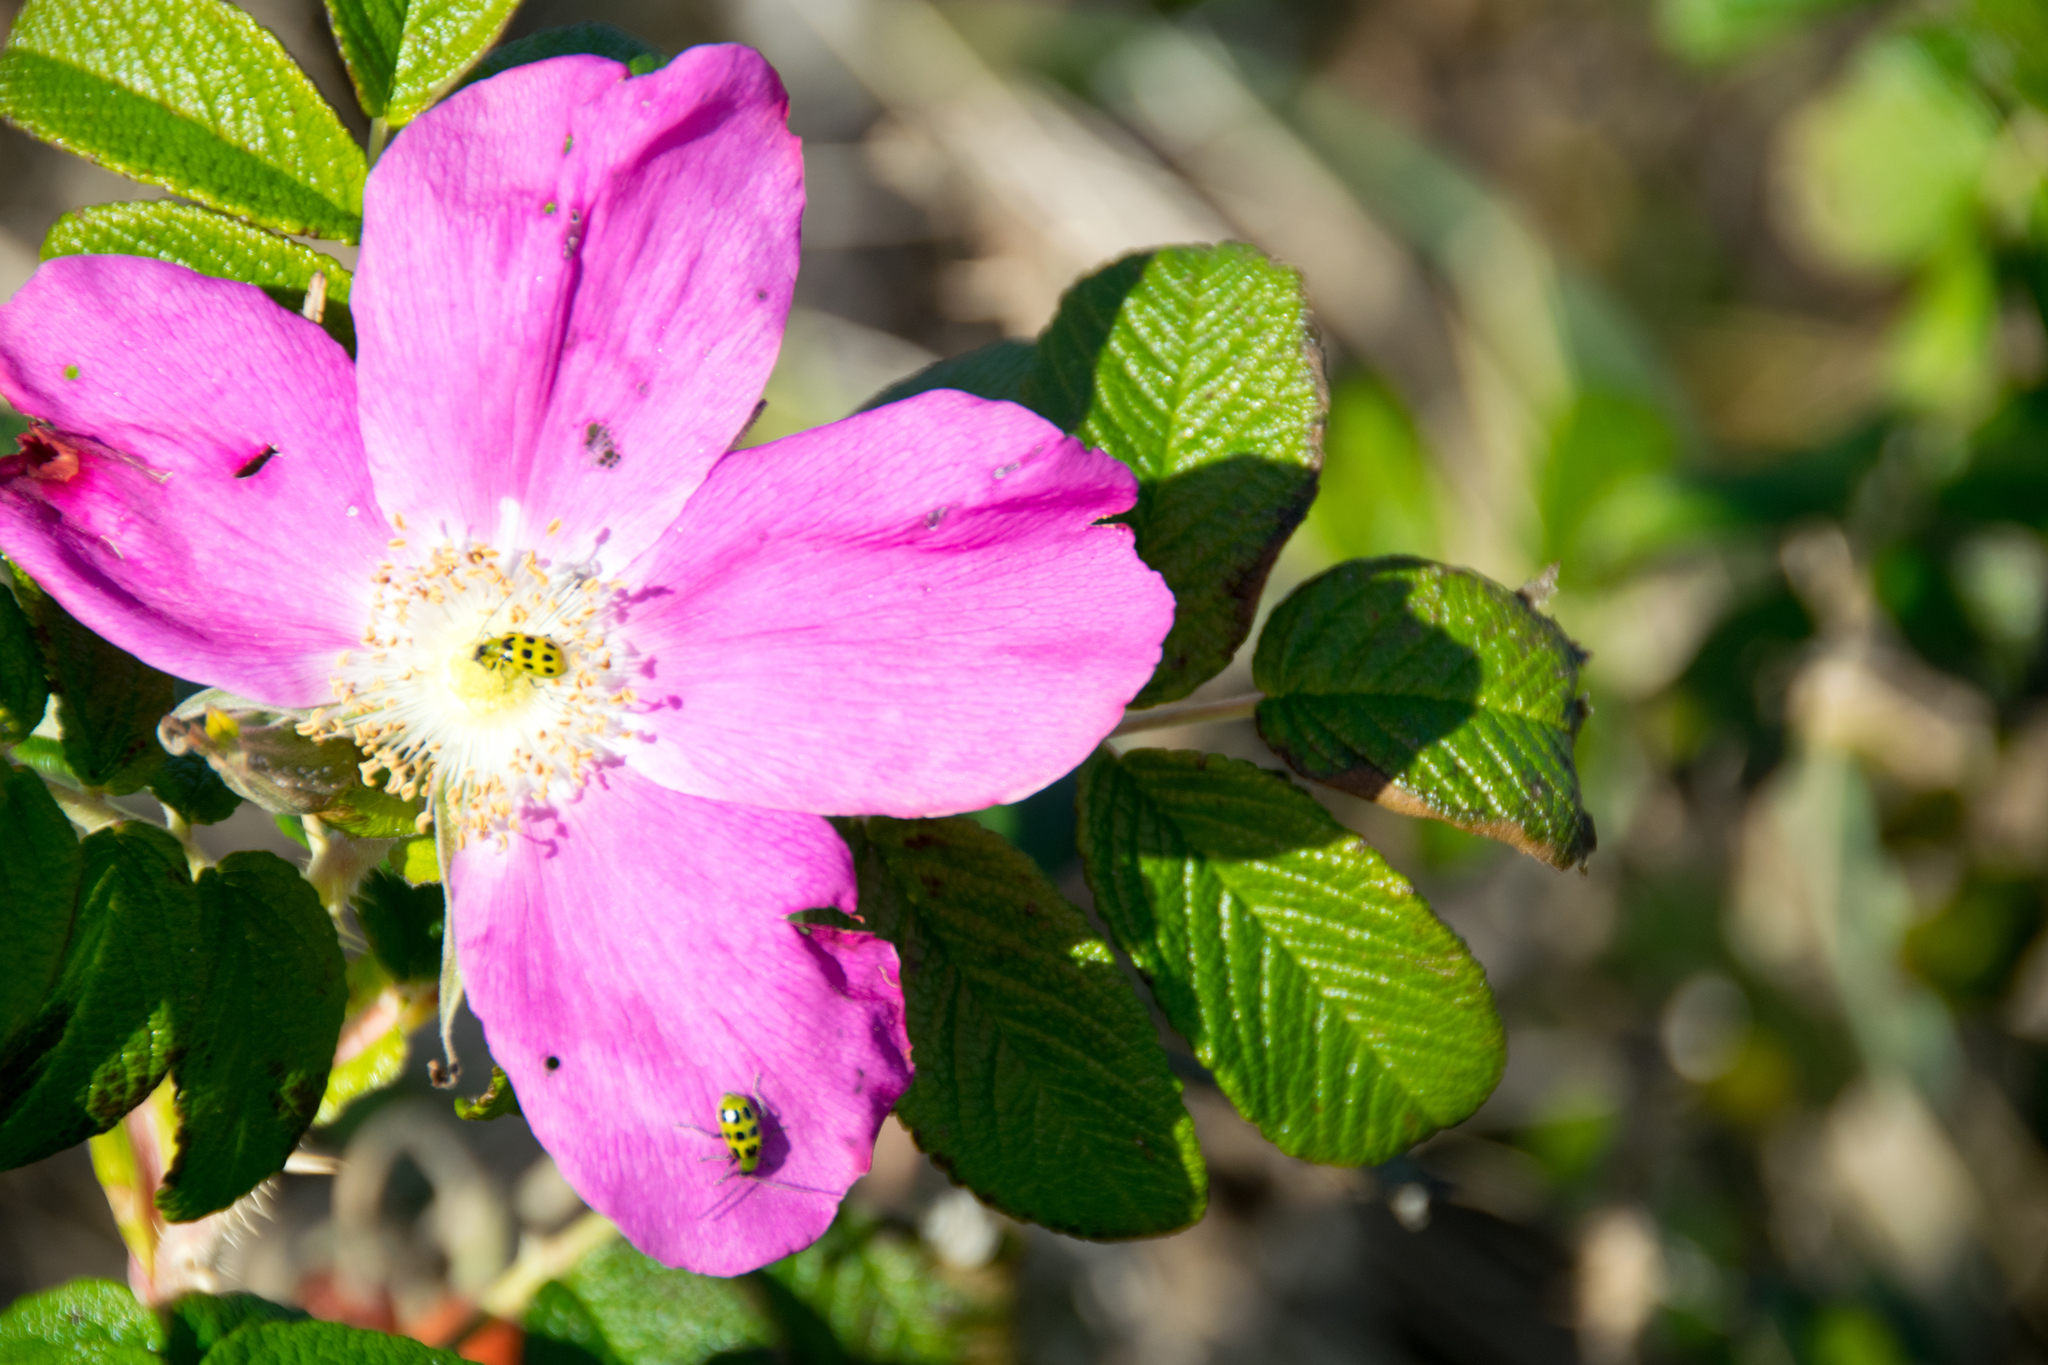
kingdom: Animalia
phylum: Arthropoda
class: Insecta
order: Coleoptera
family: Chrysomelidae
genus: Diabrotica
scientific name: Diabrotica undecimpunctata
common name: Spotted cucumber beetle
